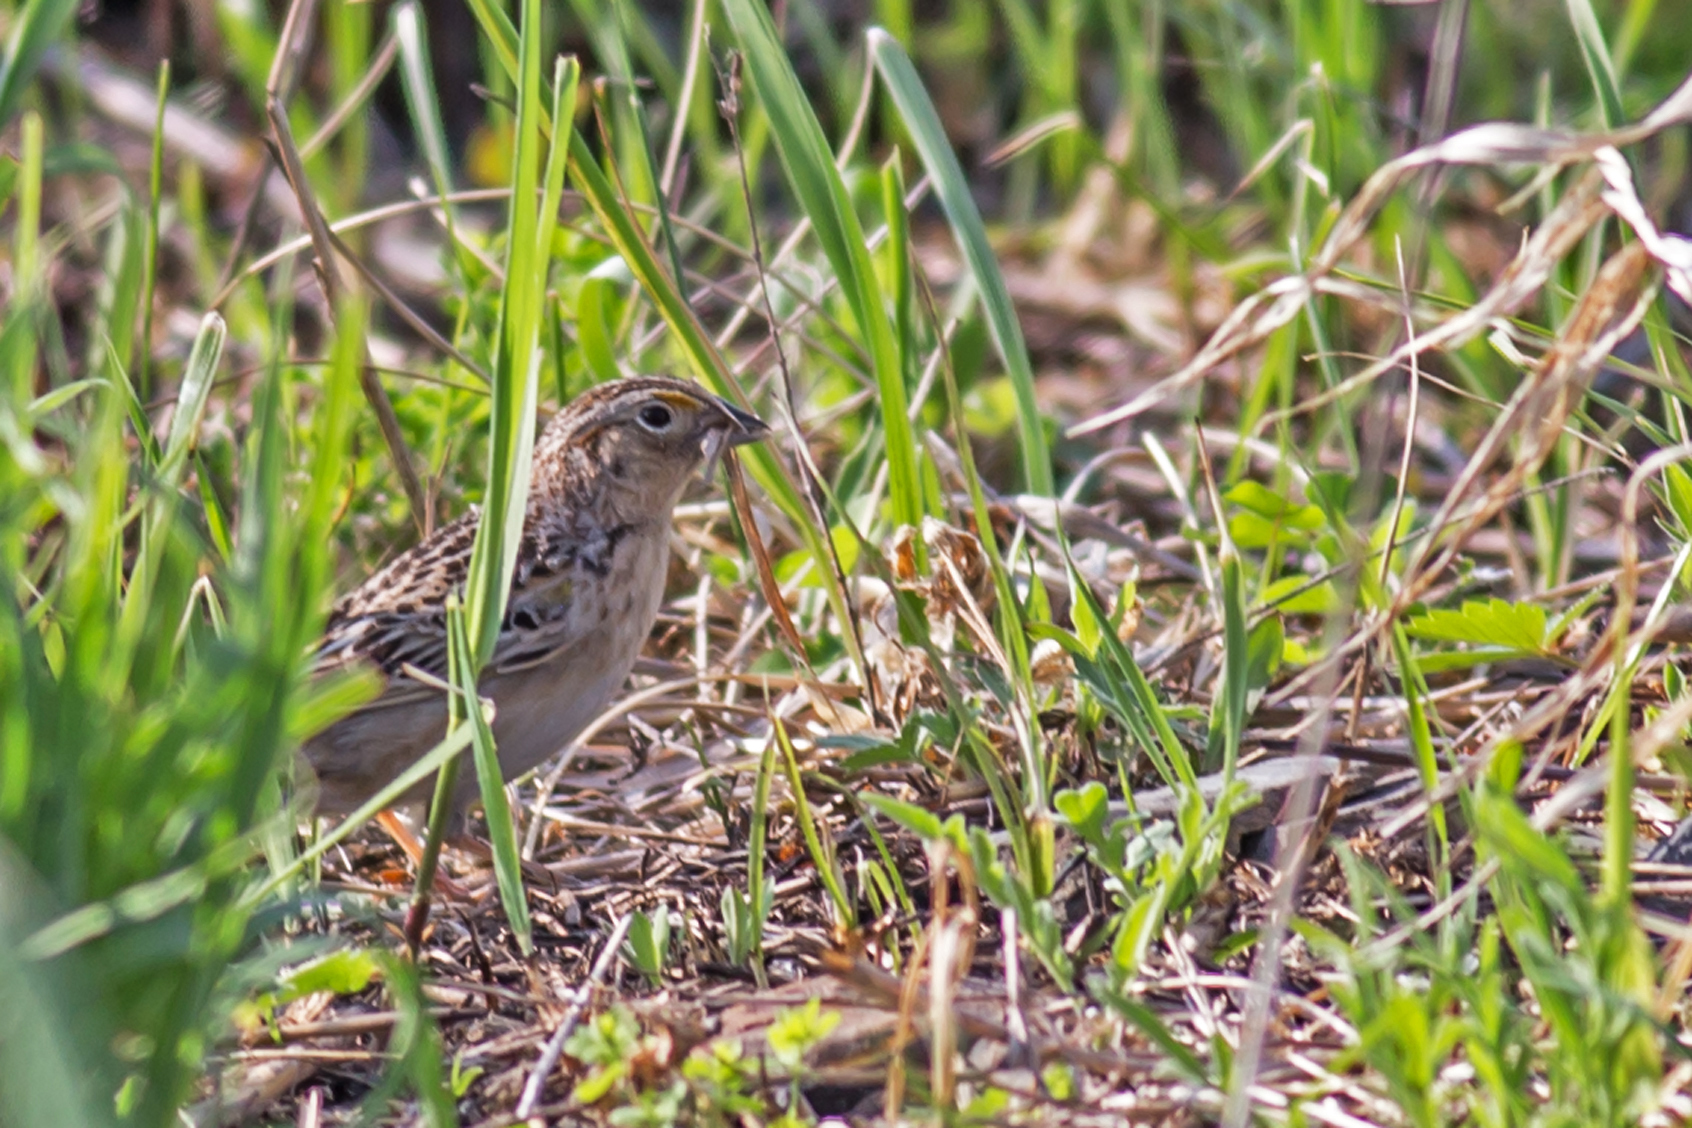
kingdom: Animalia
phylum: Chordata
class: Aves
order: Passeriformes
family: Passerellidae
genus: Ammodramus
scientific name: Ammodramus savannarum
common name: Grasshopper sparrow
